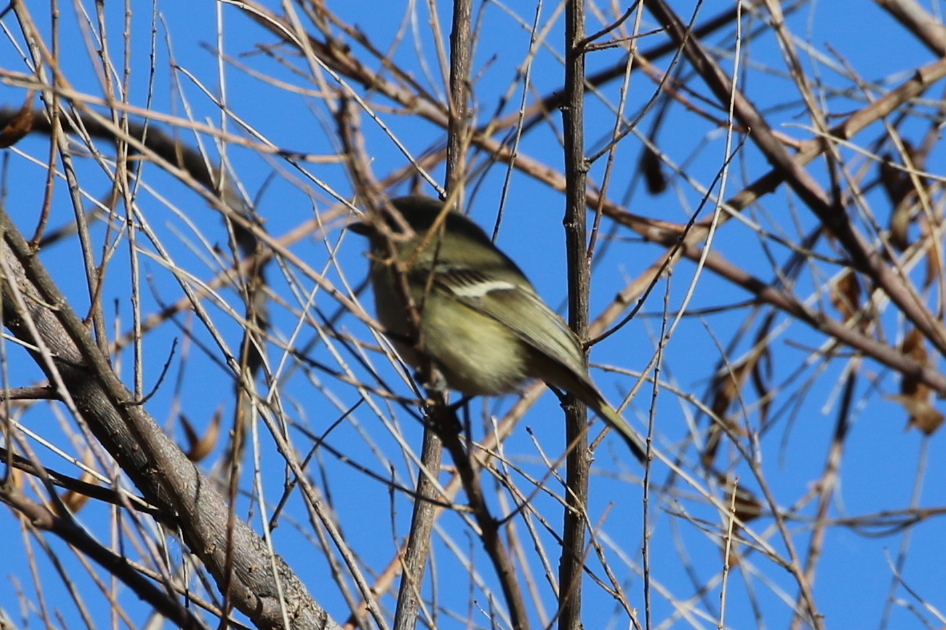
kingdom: Animalia
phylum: Chordata
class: Aves
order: Passeriformes
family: Vireonidae
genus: Vireo
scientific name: Vireo huttoni
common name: Hutton's vireo
